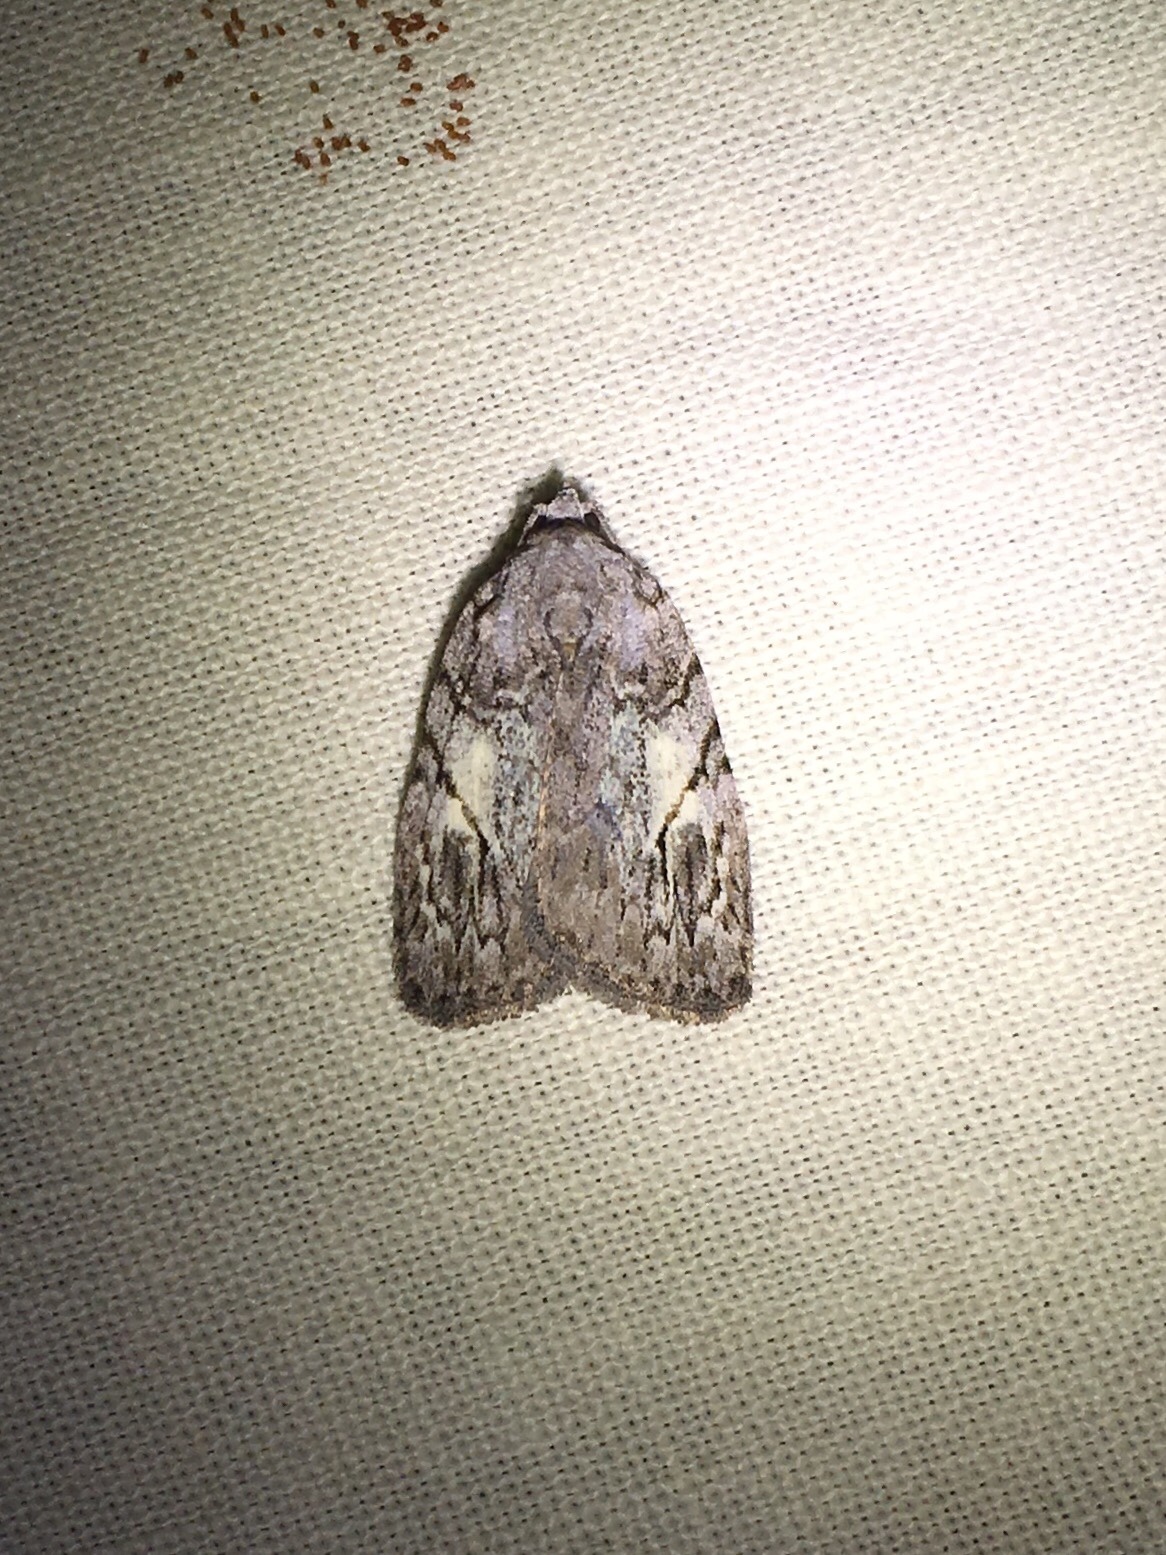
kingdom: Animalia
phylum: Arthropoda
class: Insecta
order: Lepidoptera
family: Noctuidae
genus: Balsa
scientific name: Balsa labecula
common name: White-blotched balsa moth
